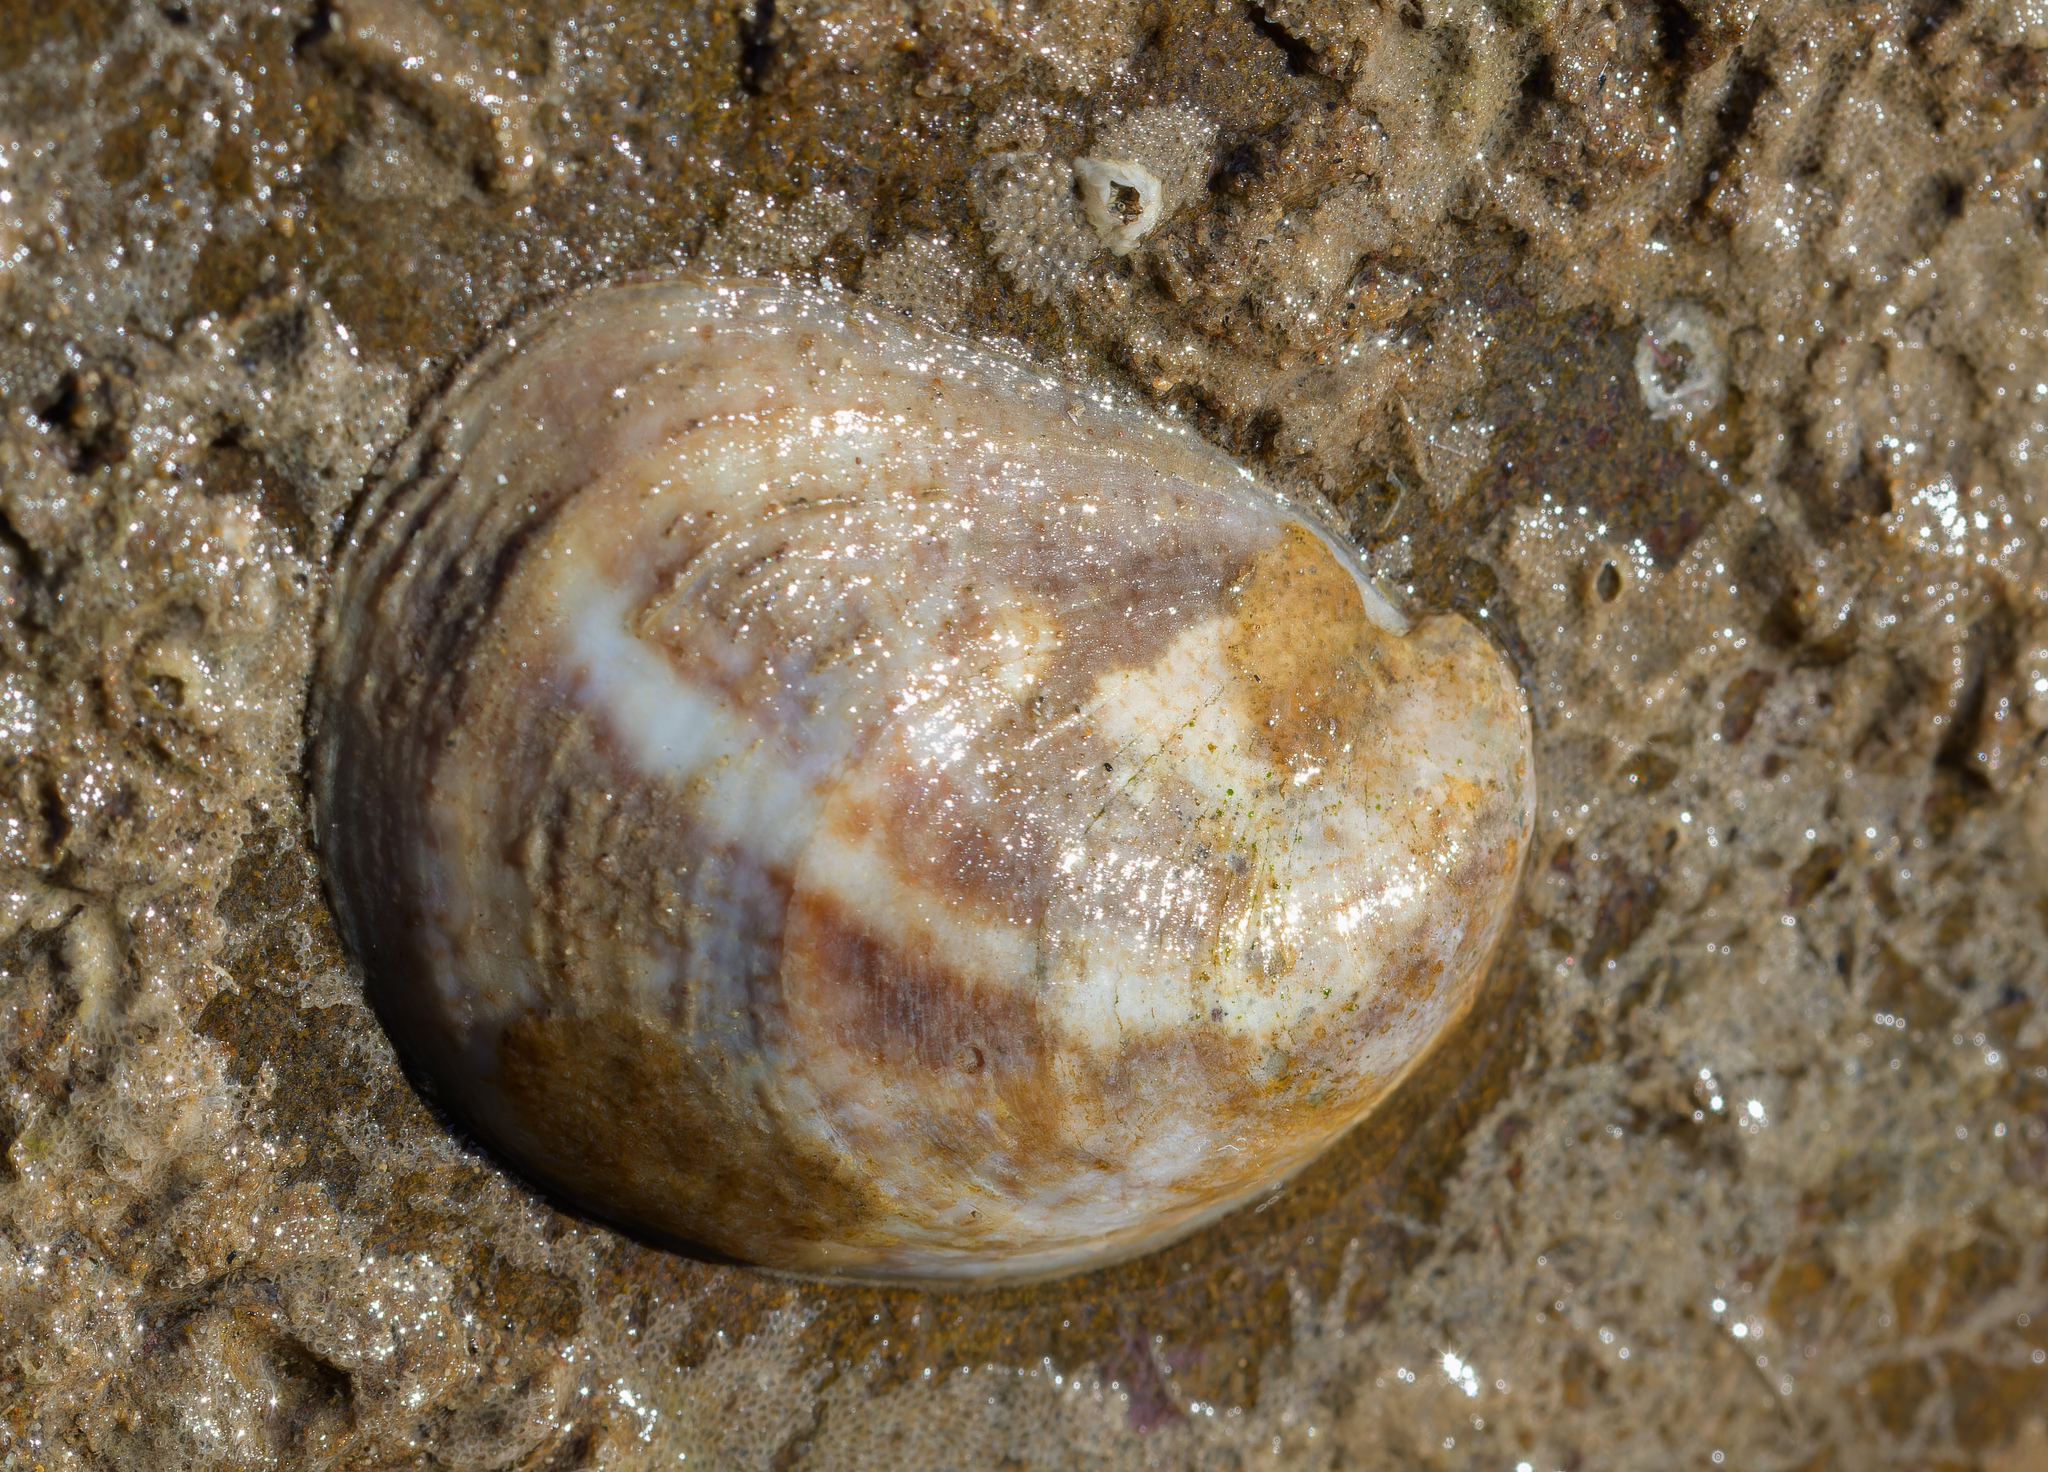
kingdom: Animalia
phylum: Mollusca
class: Gastropoda
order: Littorinimorpha
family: Calyptraeidae
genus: Crepidula
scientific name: Crepidula fornicata
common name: Slipper limpet
